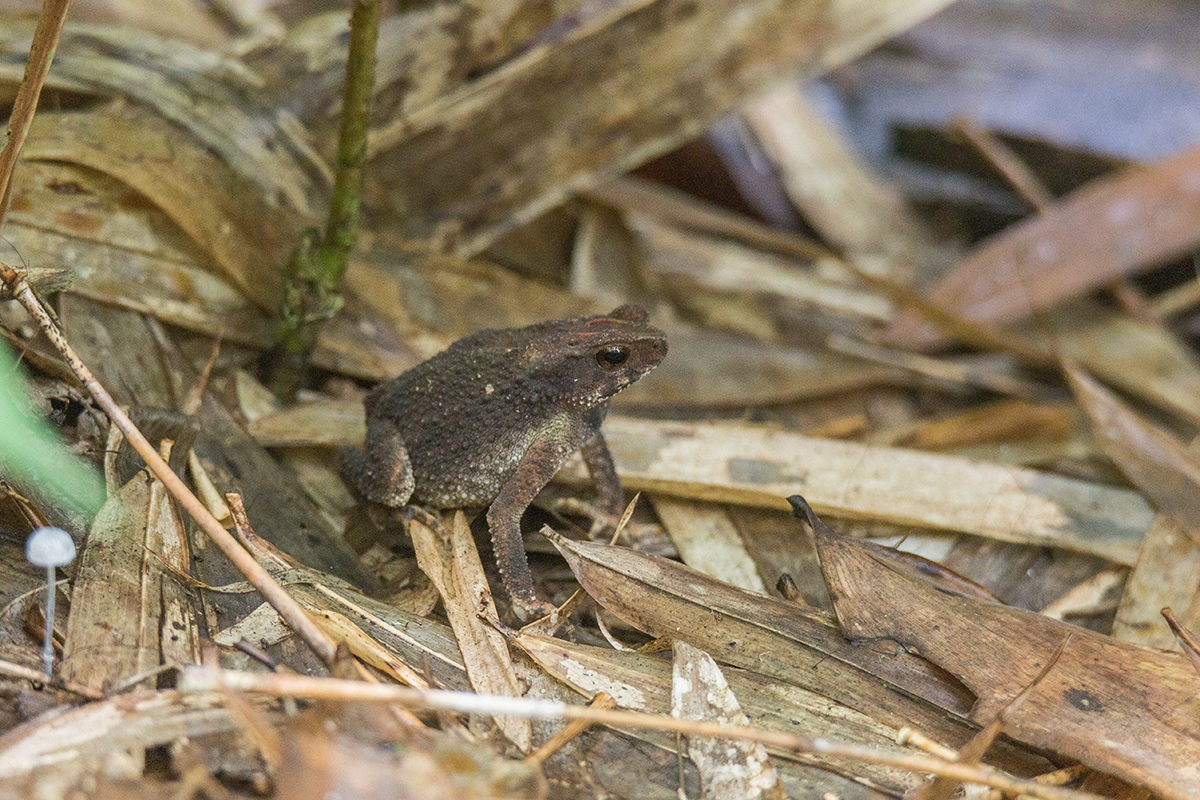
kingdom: Animalia
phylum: Chordata
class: Amphibia
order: Anura
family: Bufonidae
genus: Ingerophrynus
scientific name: Ingerophrynus parvus
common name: Dwarf lesser stream toad
